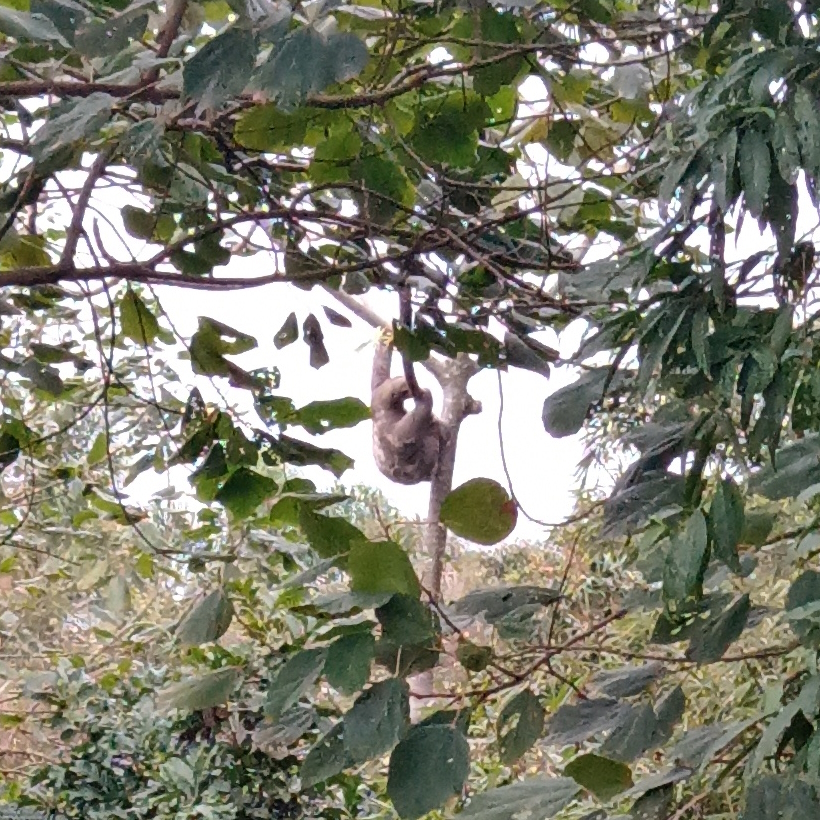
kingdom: Animalia
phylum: Chordata
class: Mammalia
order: Pilosa
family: Bradypodidae
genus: Bradypus
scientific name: Bradypus variegatus
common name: Brown-throated three-toed sloth
